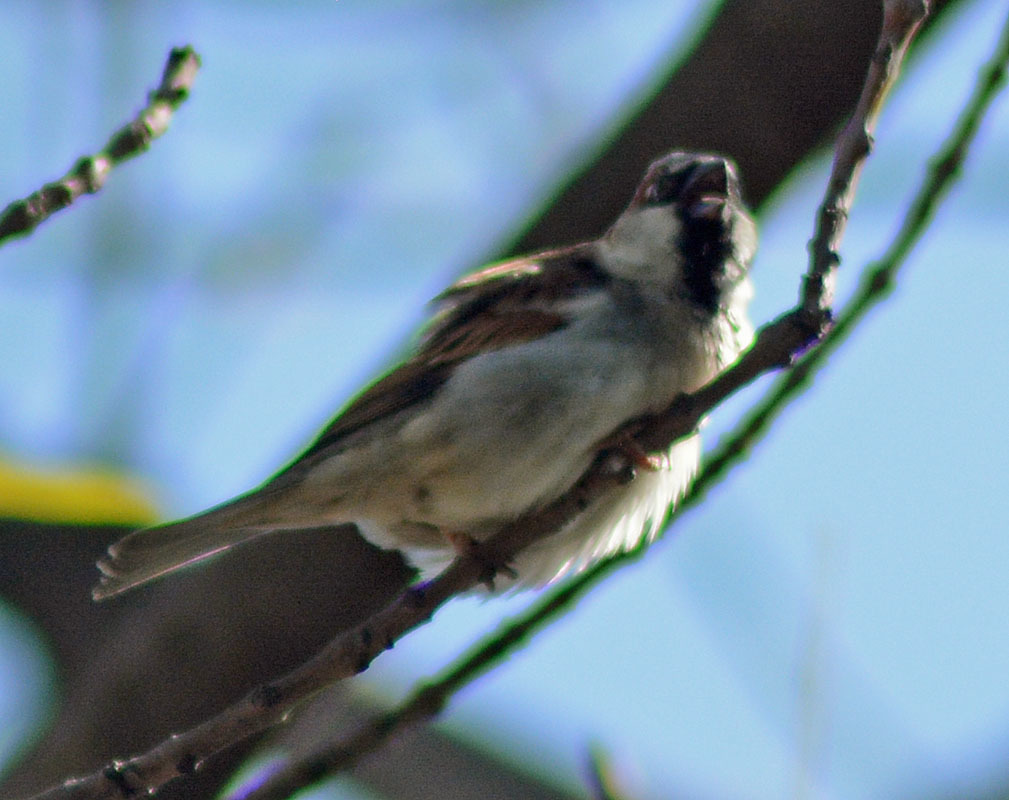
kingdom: Animalia
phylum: Chordata
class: Aves
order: Passeriformes
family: Passeridae
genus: Passer
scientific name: Passer domesticus
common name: House sparrow
